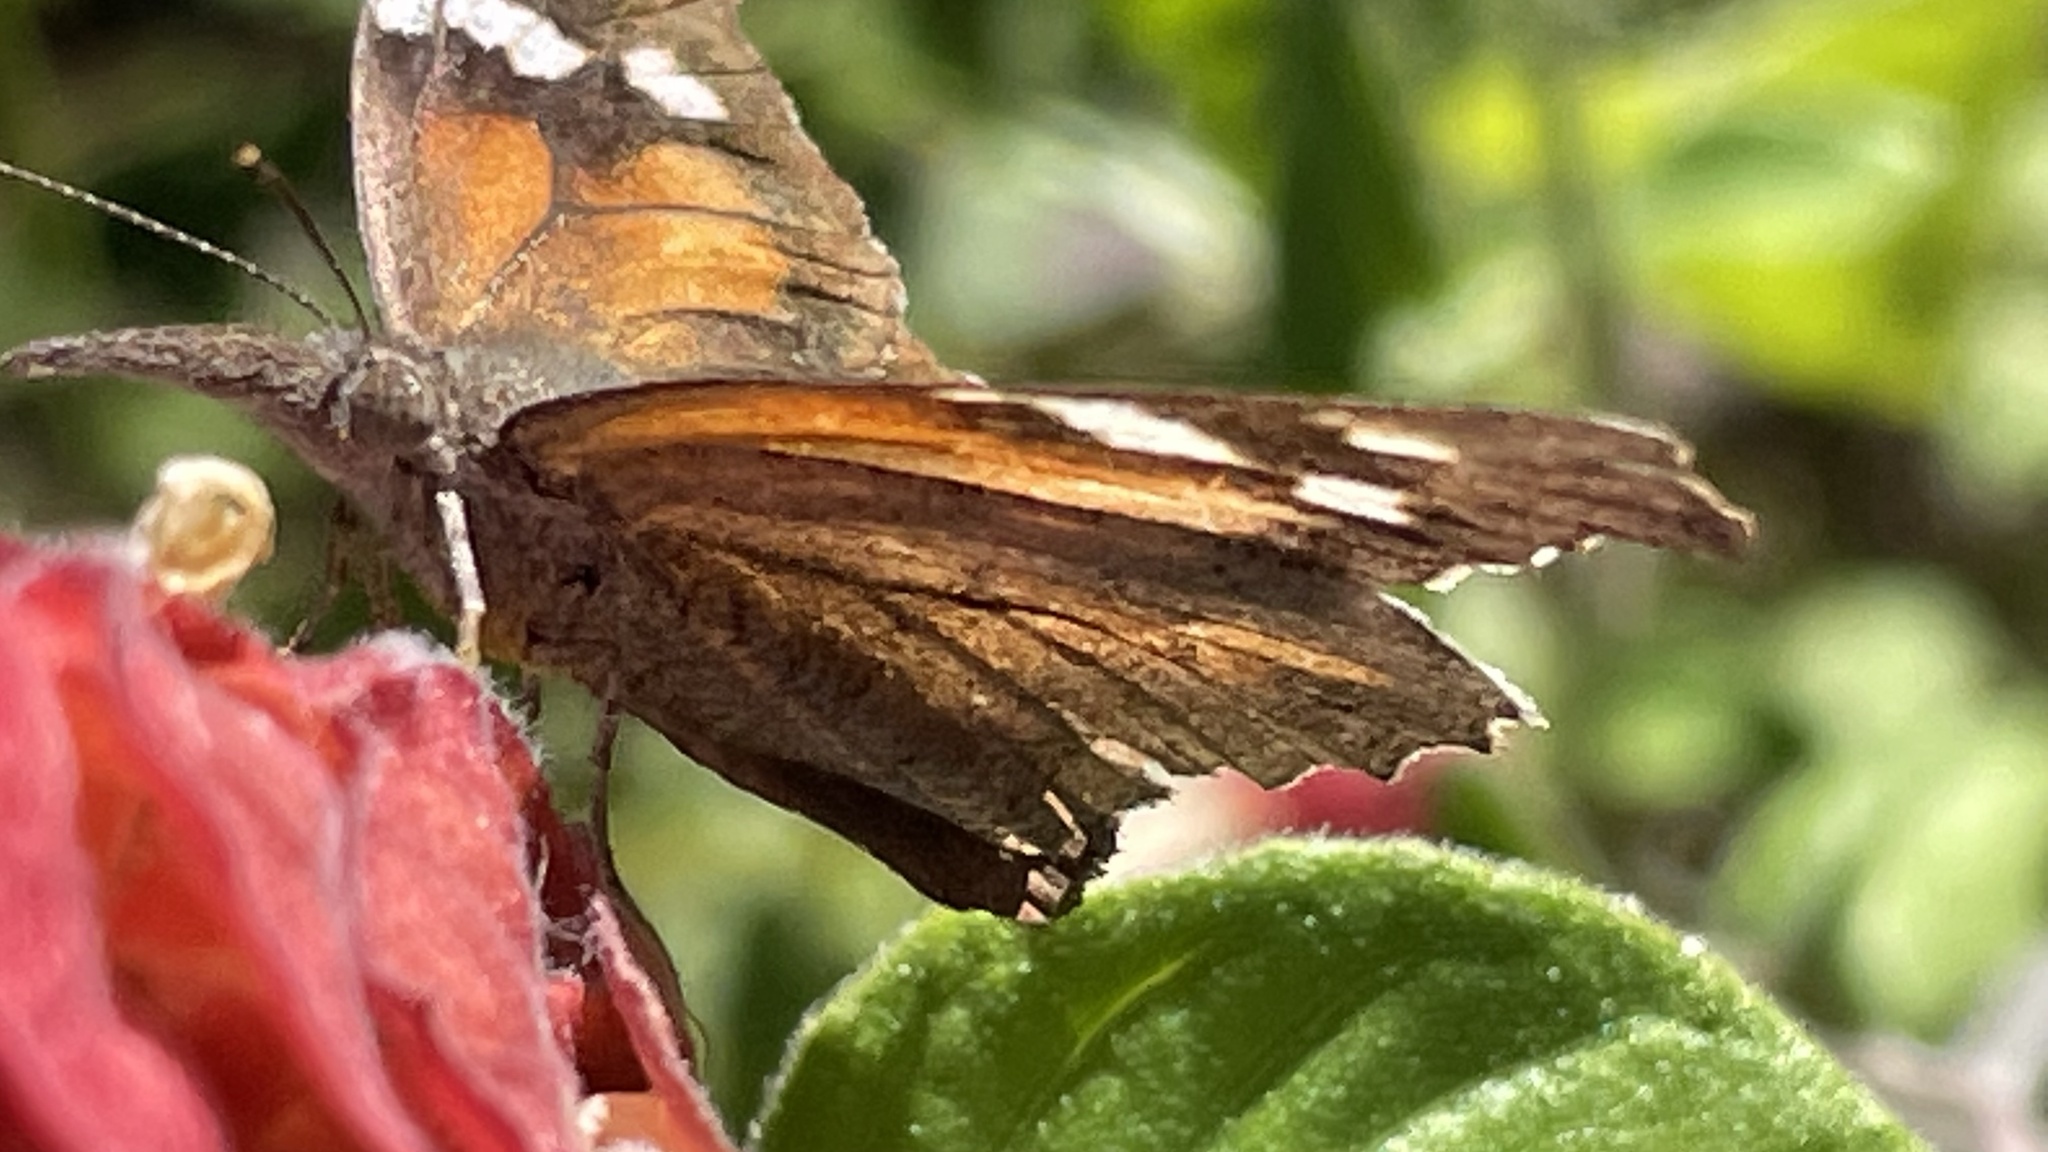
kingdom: Animalia
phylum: Arthropoda
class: Insecta
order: Lepidoptera
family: Nymphalidae
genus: Libytheana
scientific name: Libytheana carinenta
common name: American snout
